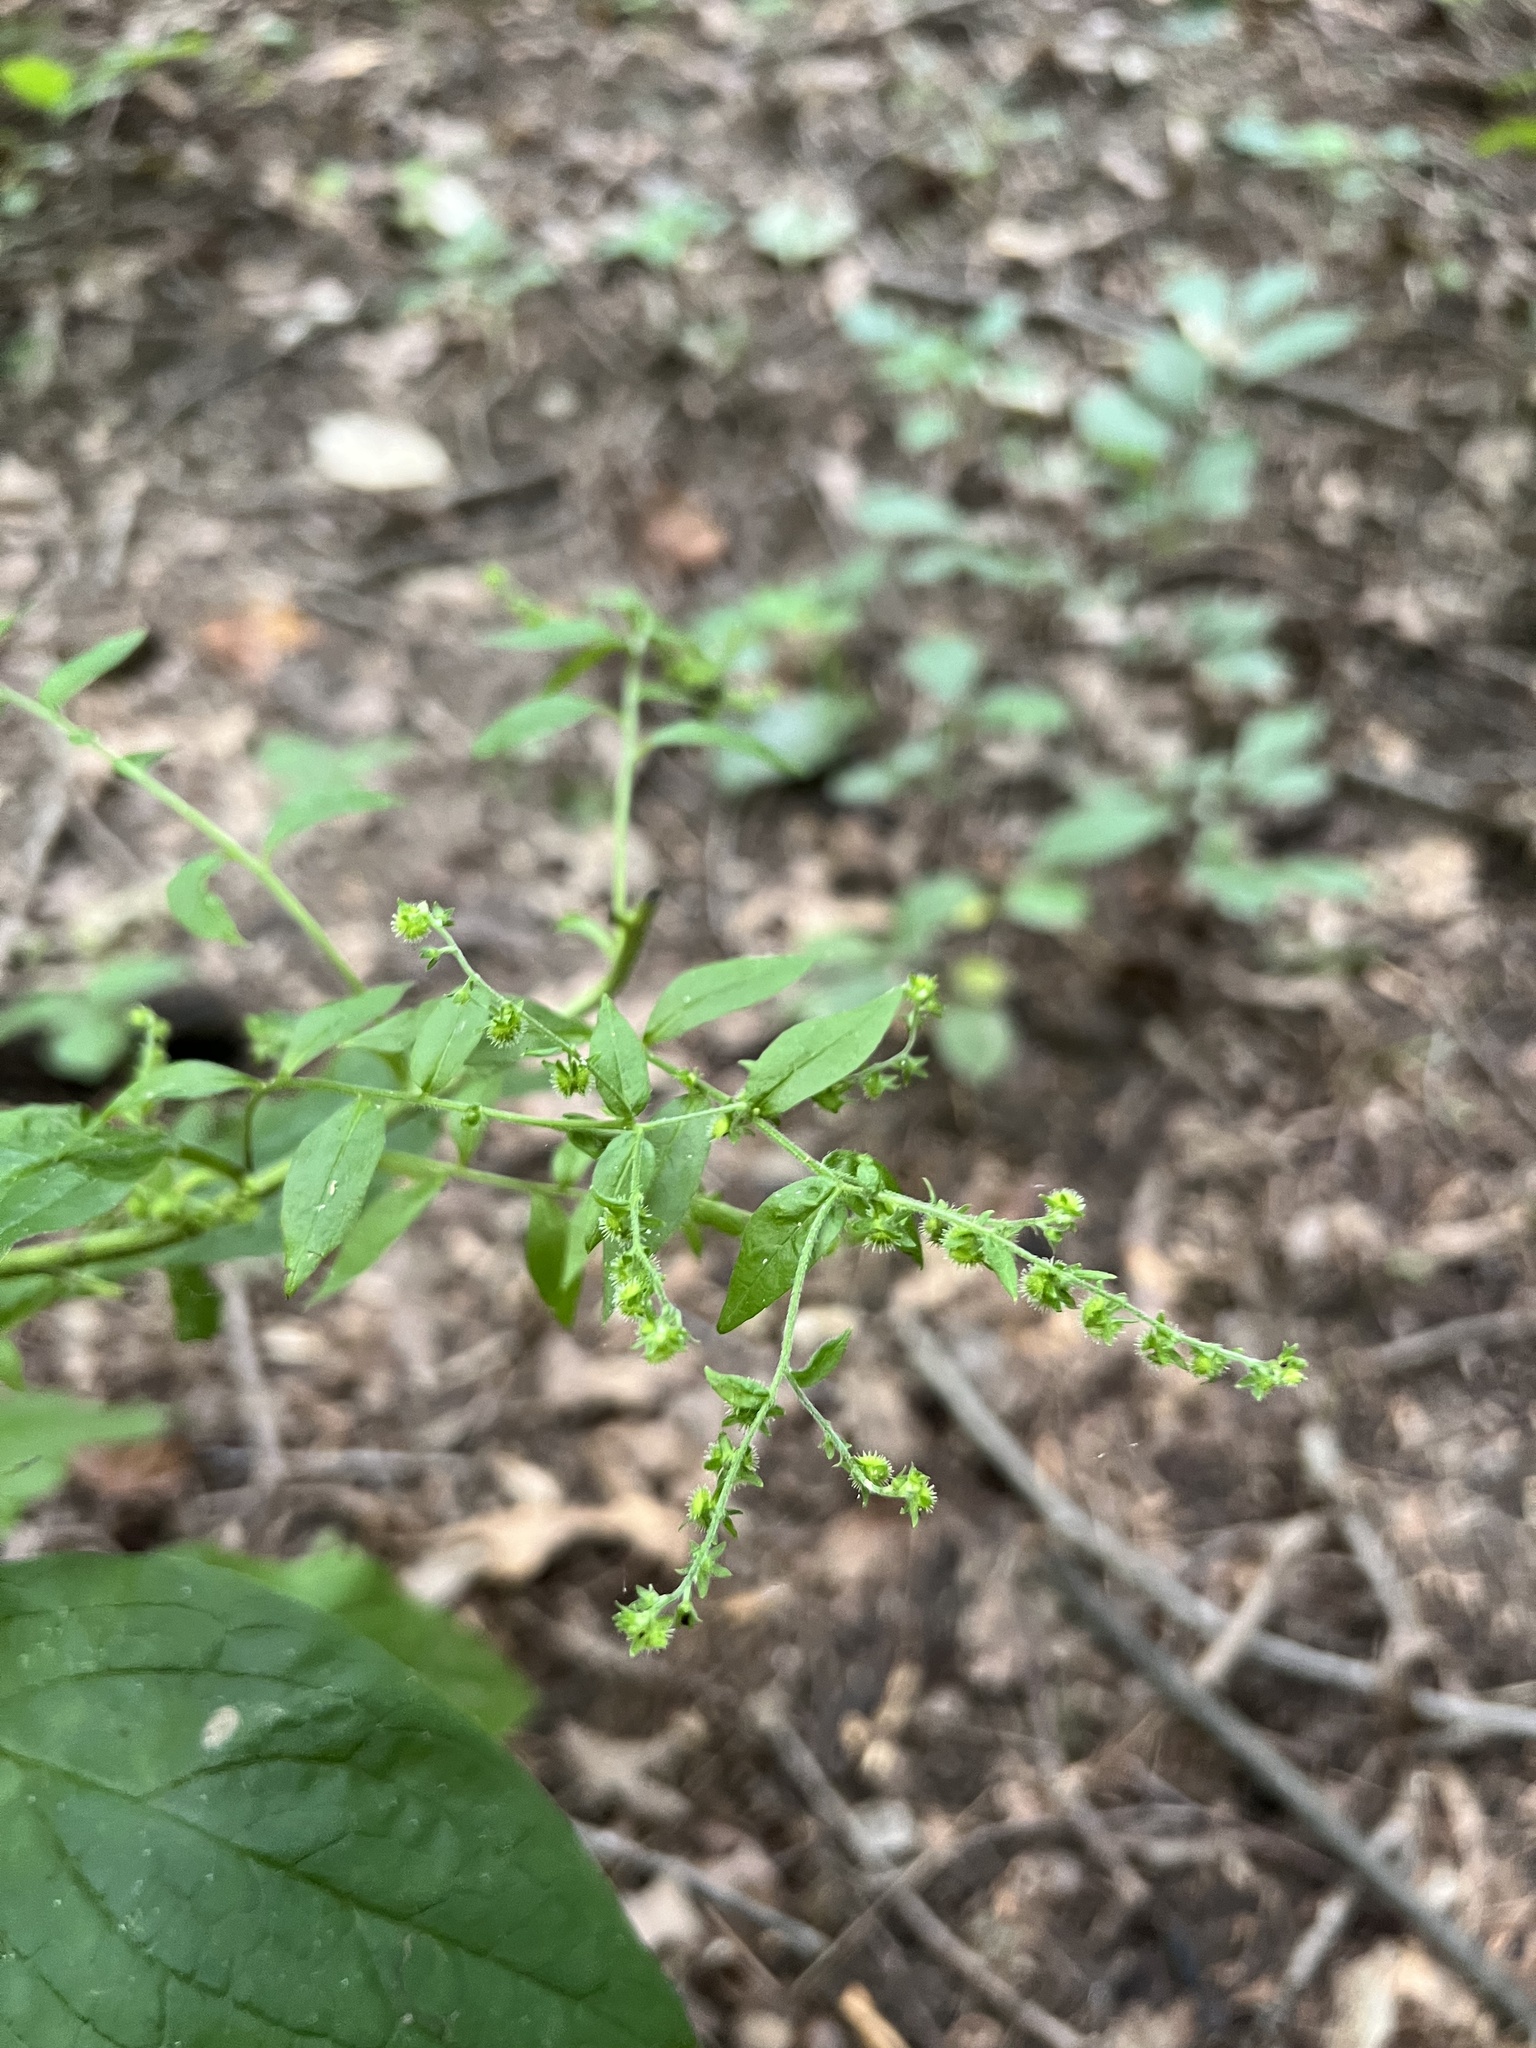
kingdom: Plantae
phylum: Tracheophyta
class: Magnoliopsida
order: Boraginales
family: Boraginaceae
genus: Hackelia
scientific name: Hackelia virginiana
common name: Beggar's-lice
